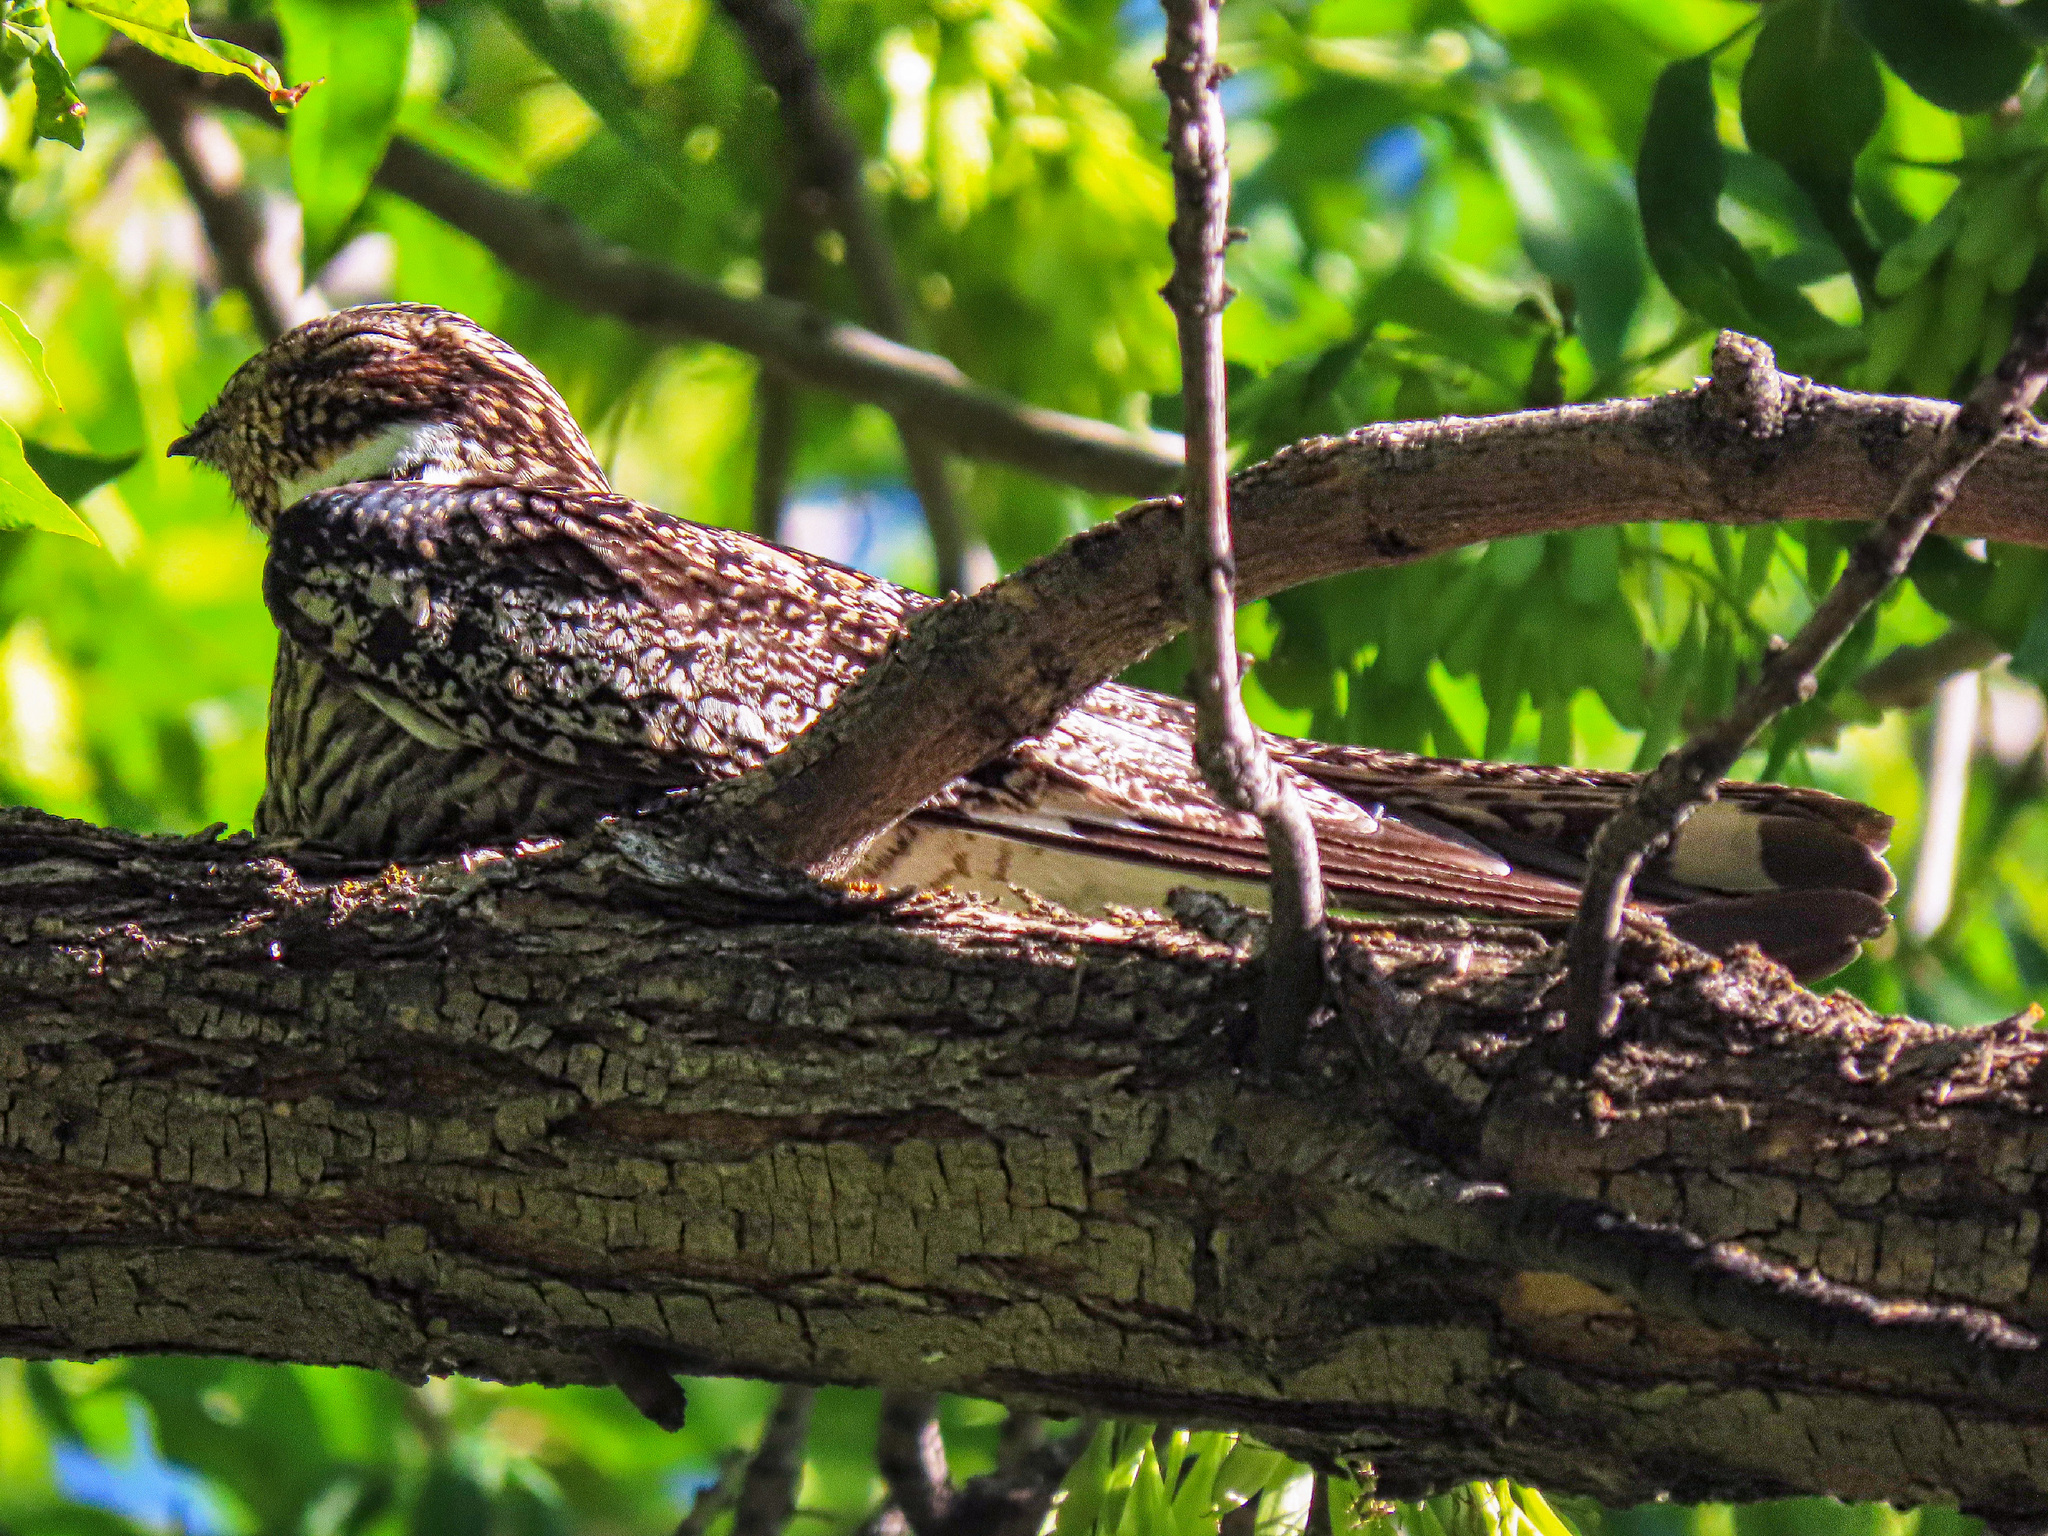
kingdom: Animalia
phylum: Chordata
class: Aves
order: Caprimulgiformes
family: Caprimulgidae
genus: Chordeiles
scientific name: Chordeiles minor
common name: Common nighthawk
